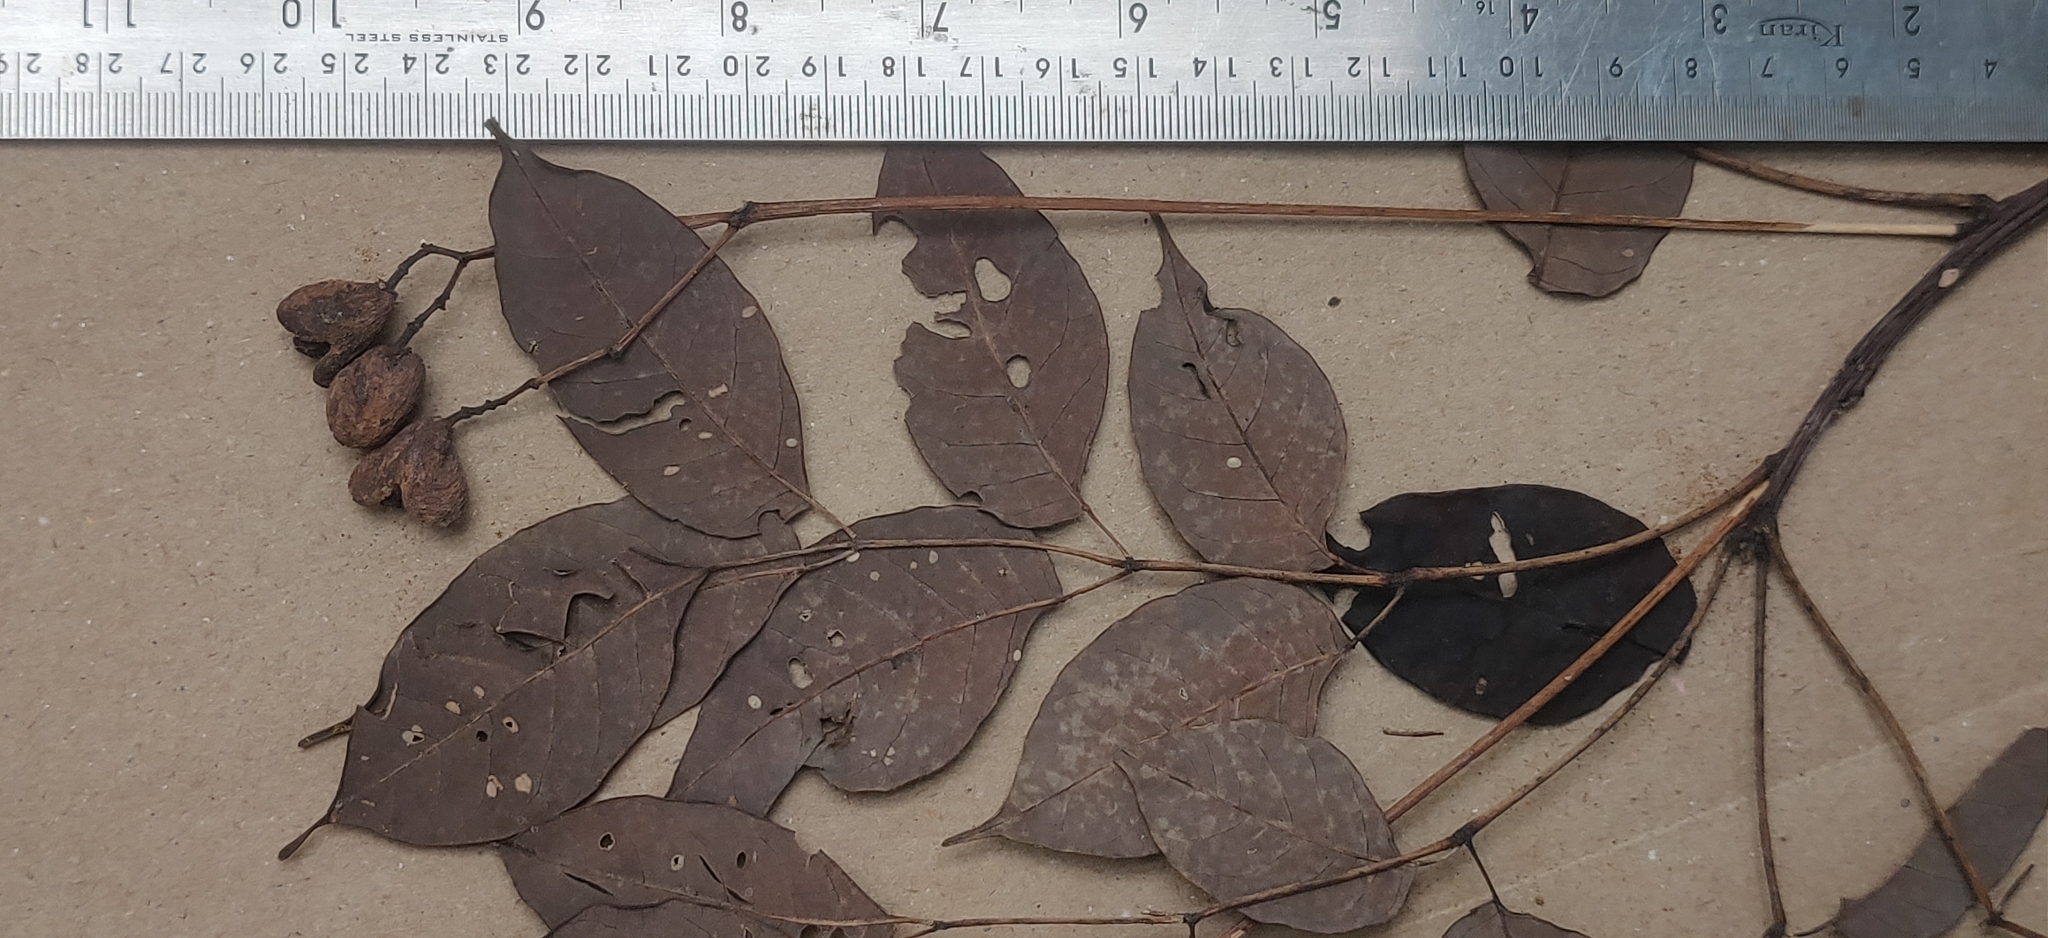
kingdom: Plantae
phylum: Tracheophyta
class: Magnoliopsida
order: Sapindales
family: Meliaceae
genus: Heynea
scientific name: Heynea trijuga
